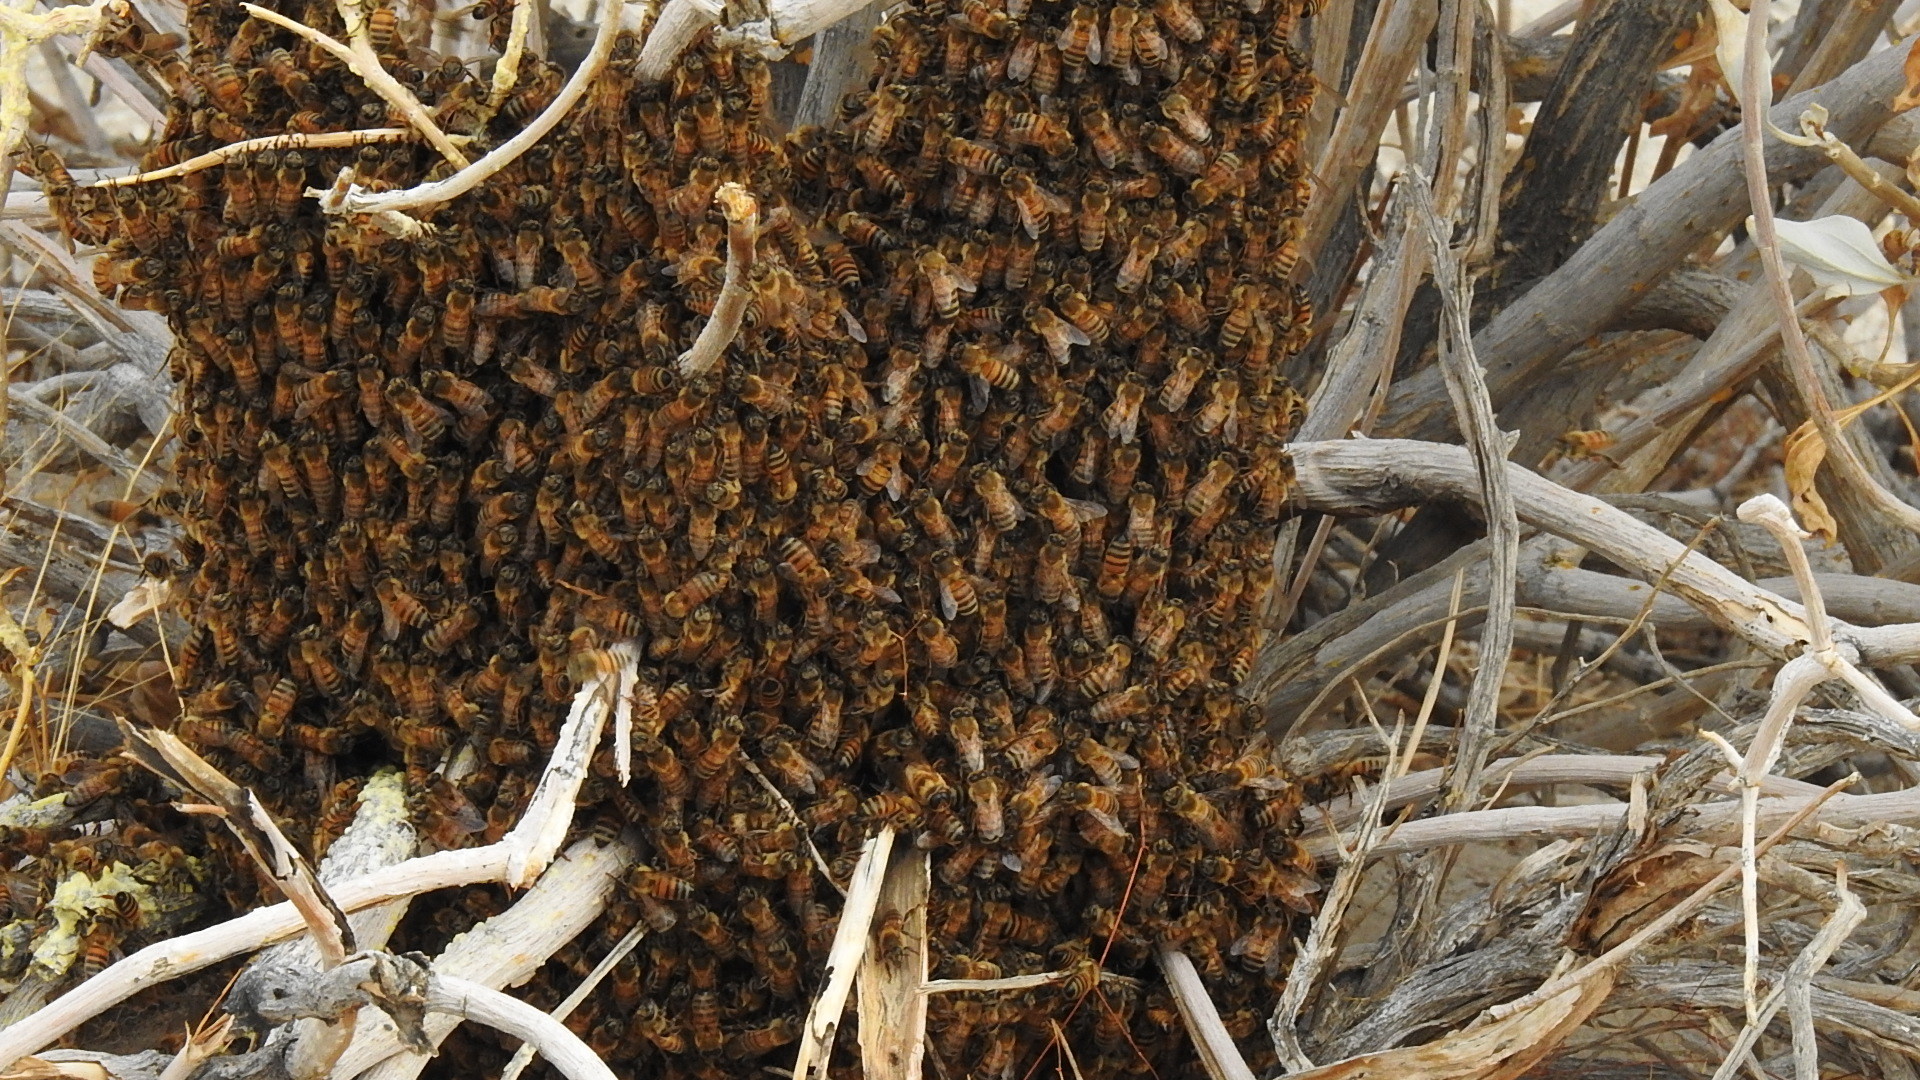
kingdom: Animalia
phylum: Arthropoda
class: Insecta
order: Hymenoptera
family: Apidae
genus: Apis
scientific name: Apis mellifera
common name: Honey bee
